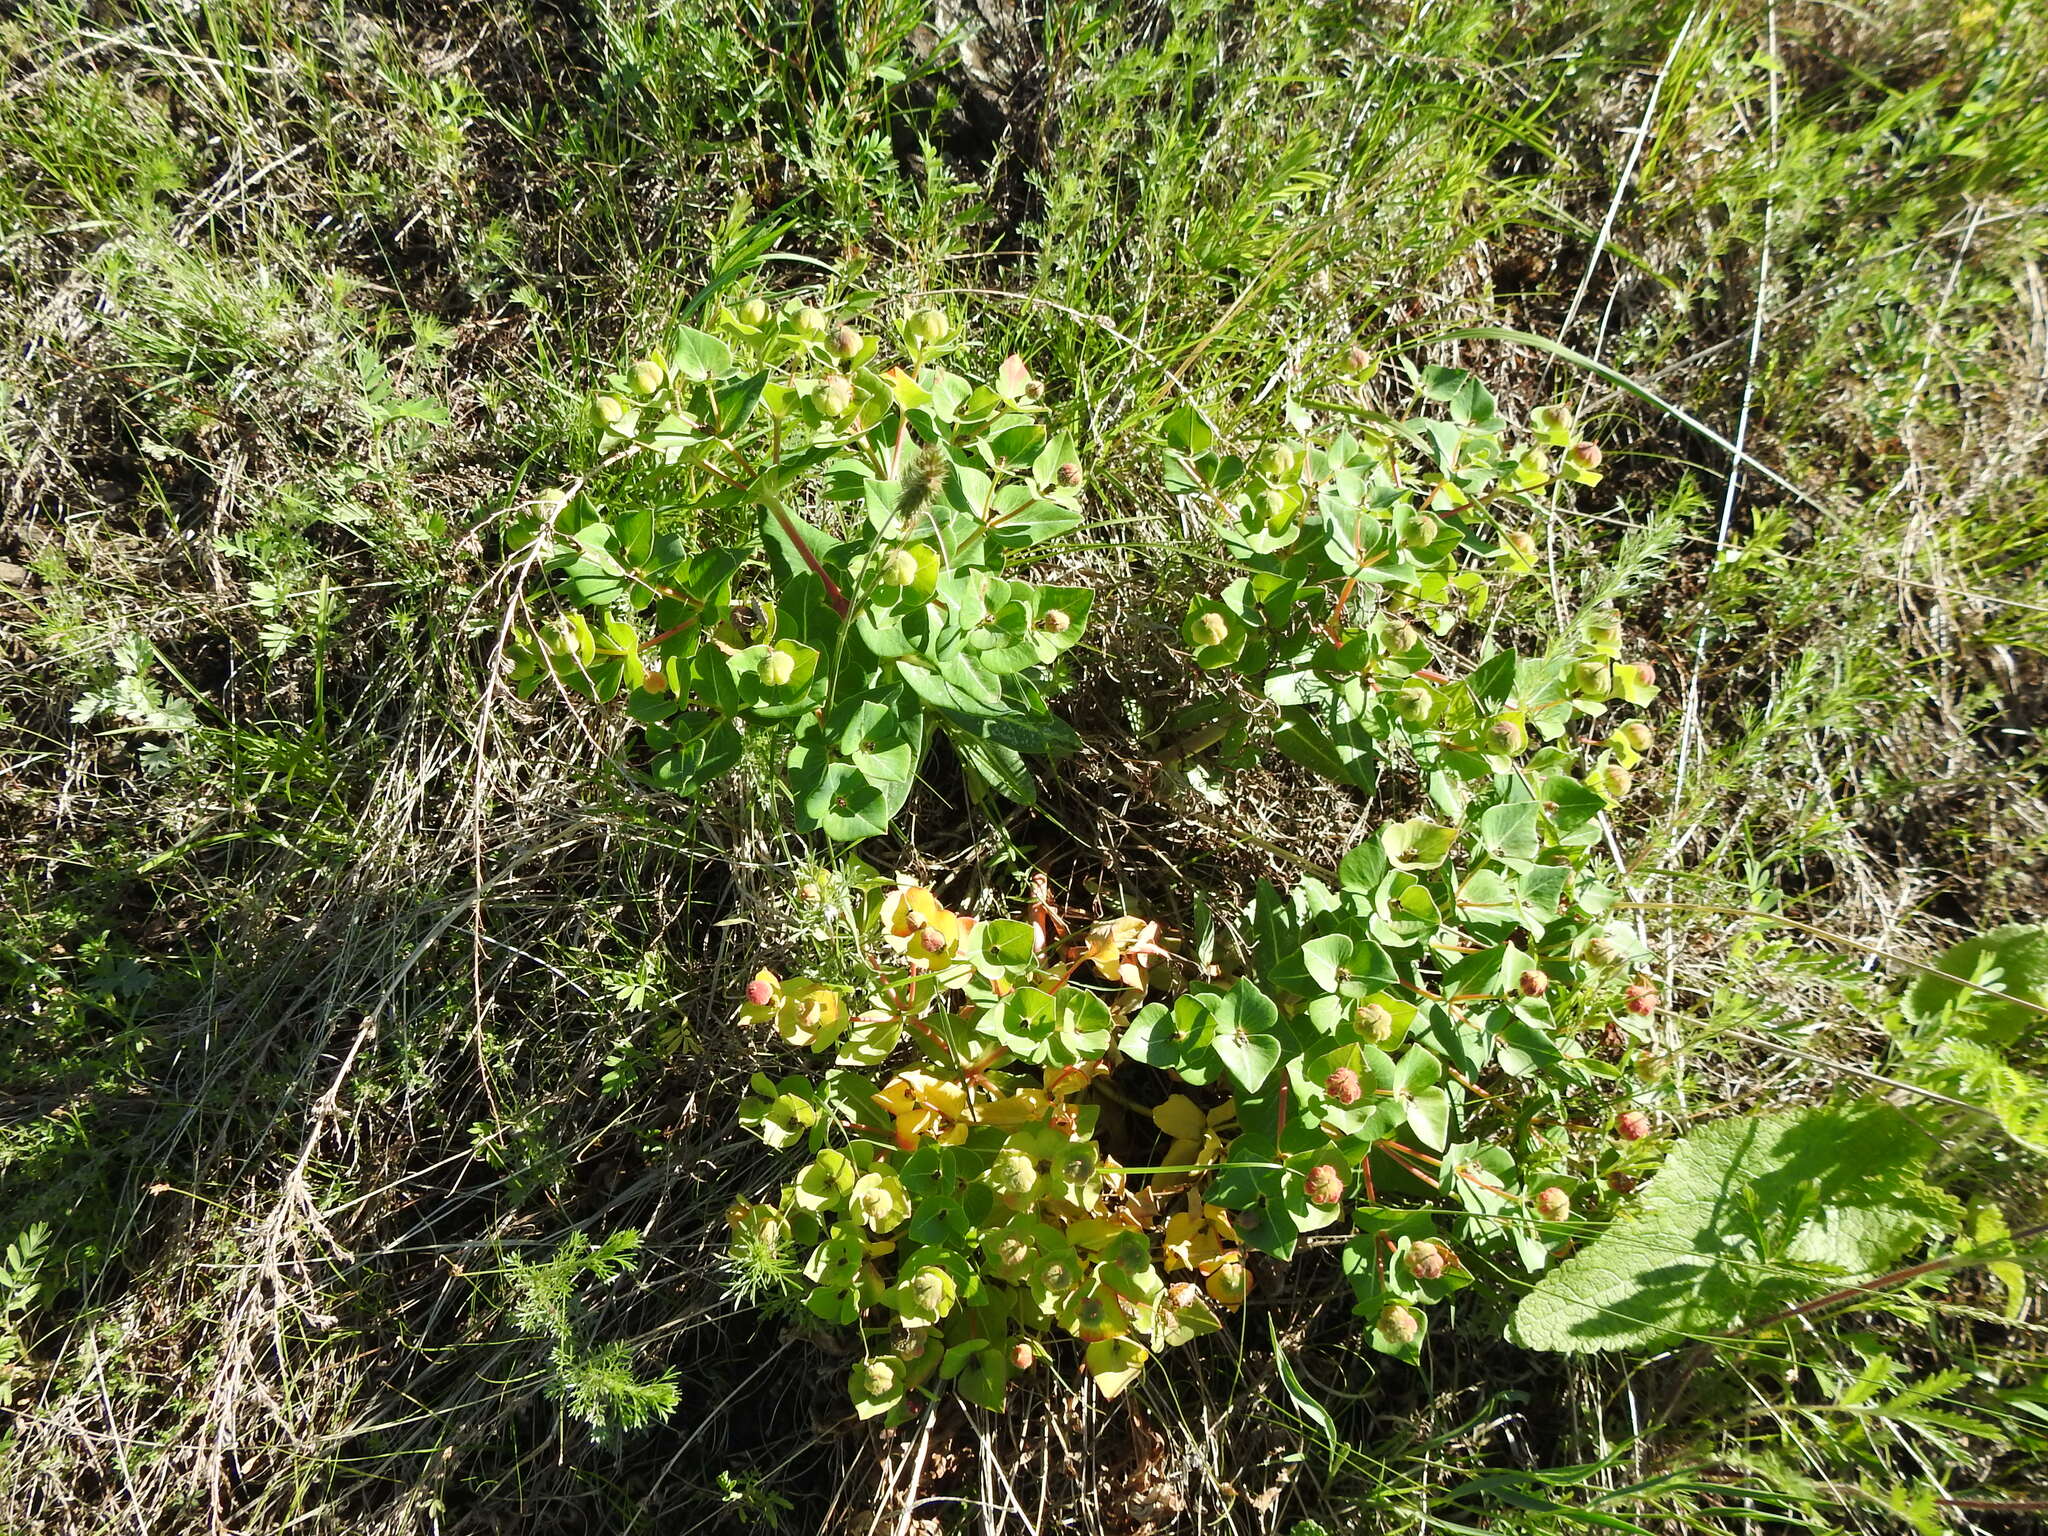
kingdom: Plantae
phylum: Tracheophyta
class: Magnoliopsida
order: Malpighiales
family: Euphorbiaceae
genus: Euphorbia
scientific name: Euphorbia fischeriana
